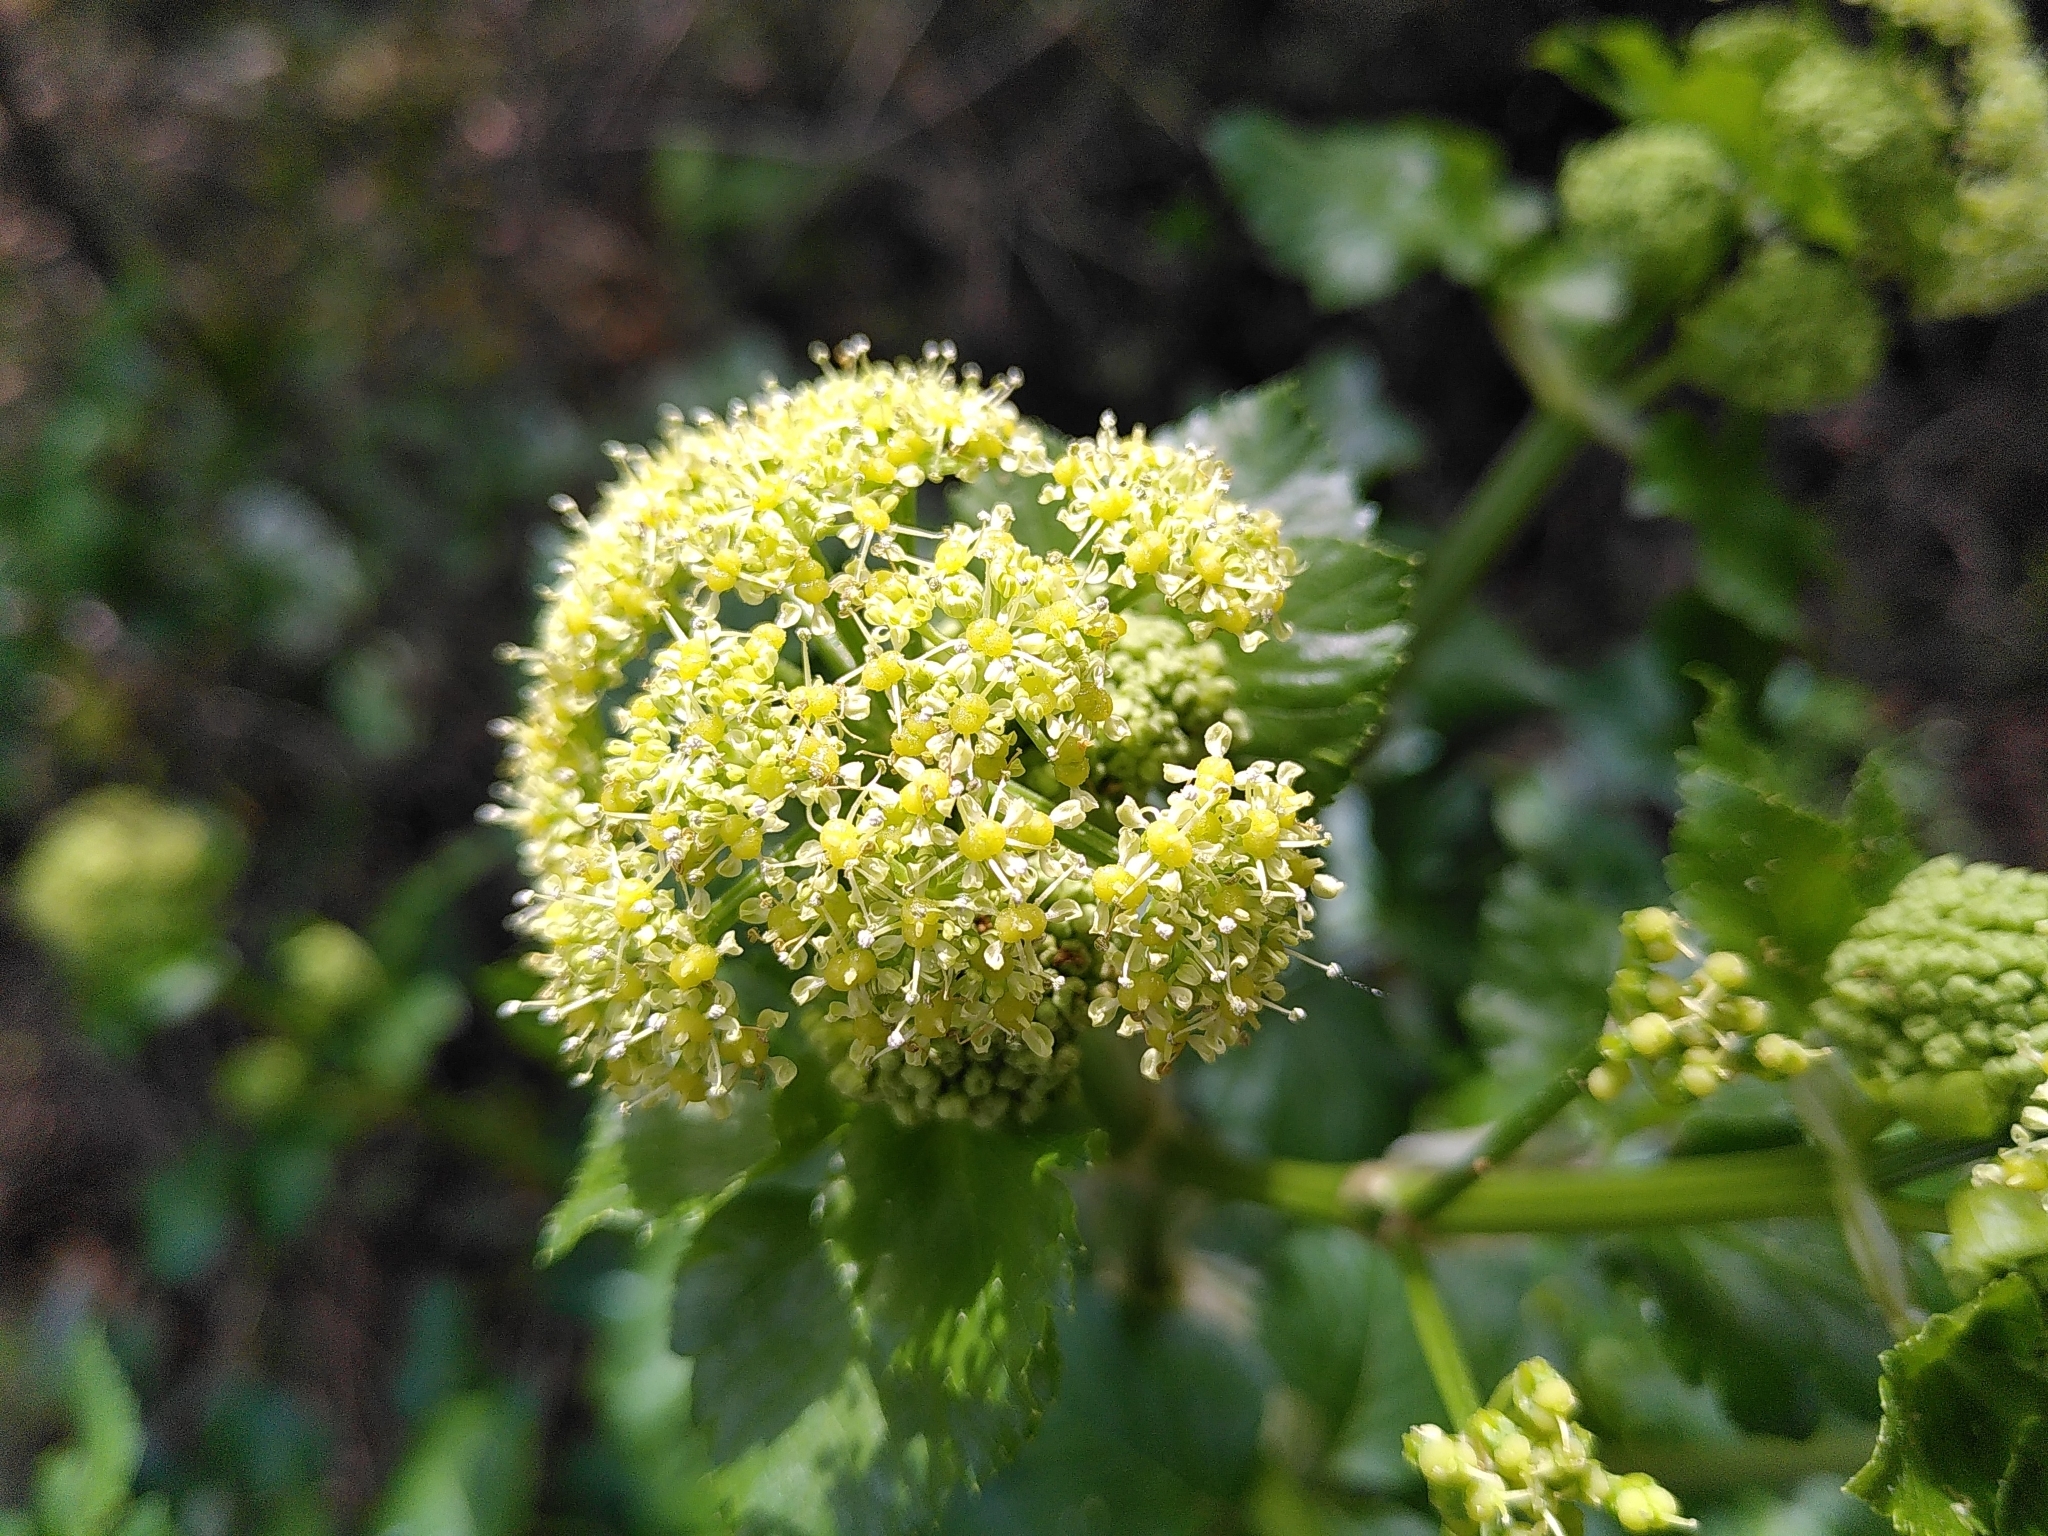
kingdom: Plantae
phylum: Tracheophyta
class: Magnoliopsida
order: Apiales
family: Apiaceae
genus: Smyrnium
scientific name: Smyrnium olusatrum
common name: Alexanders
